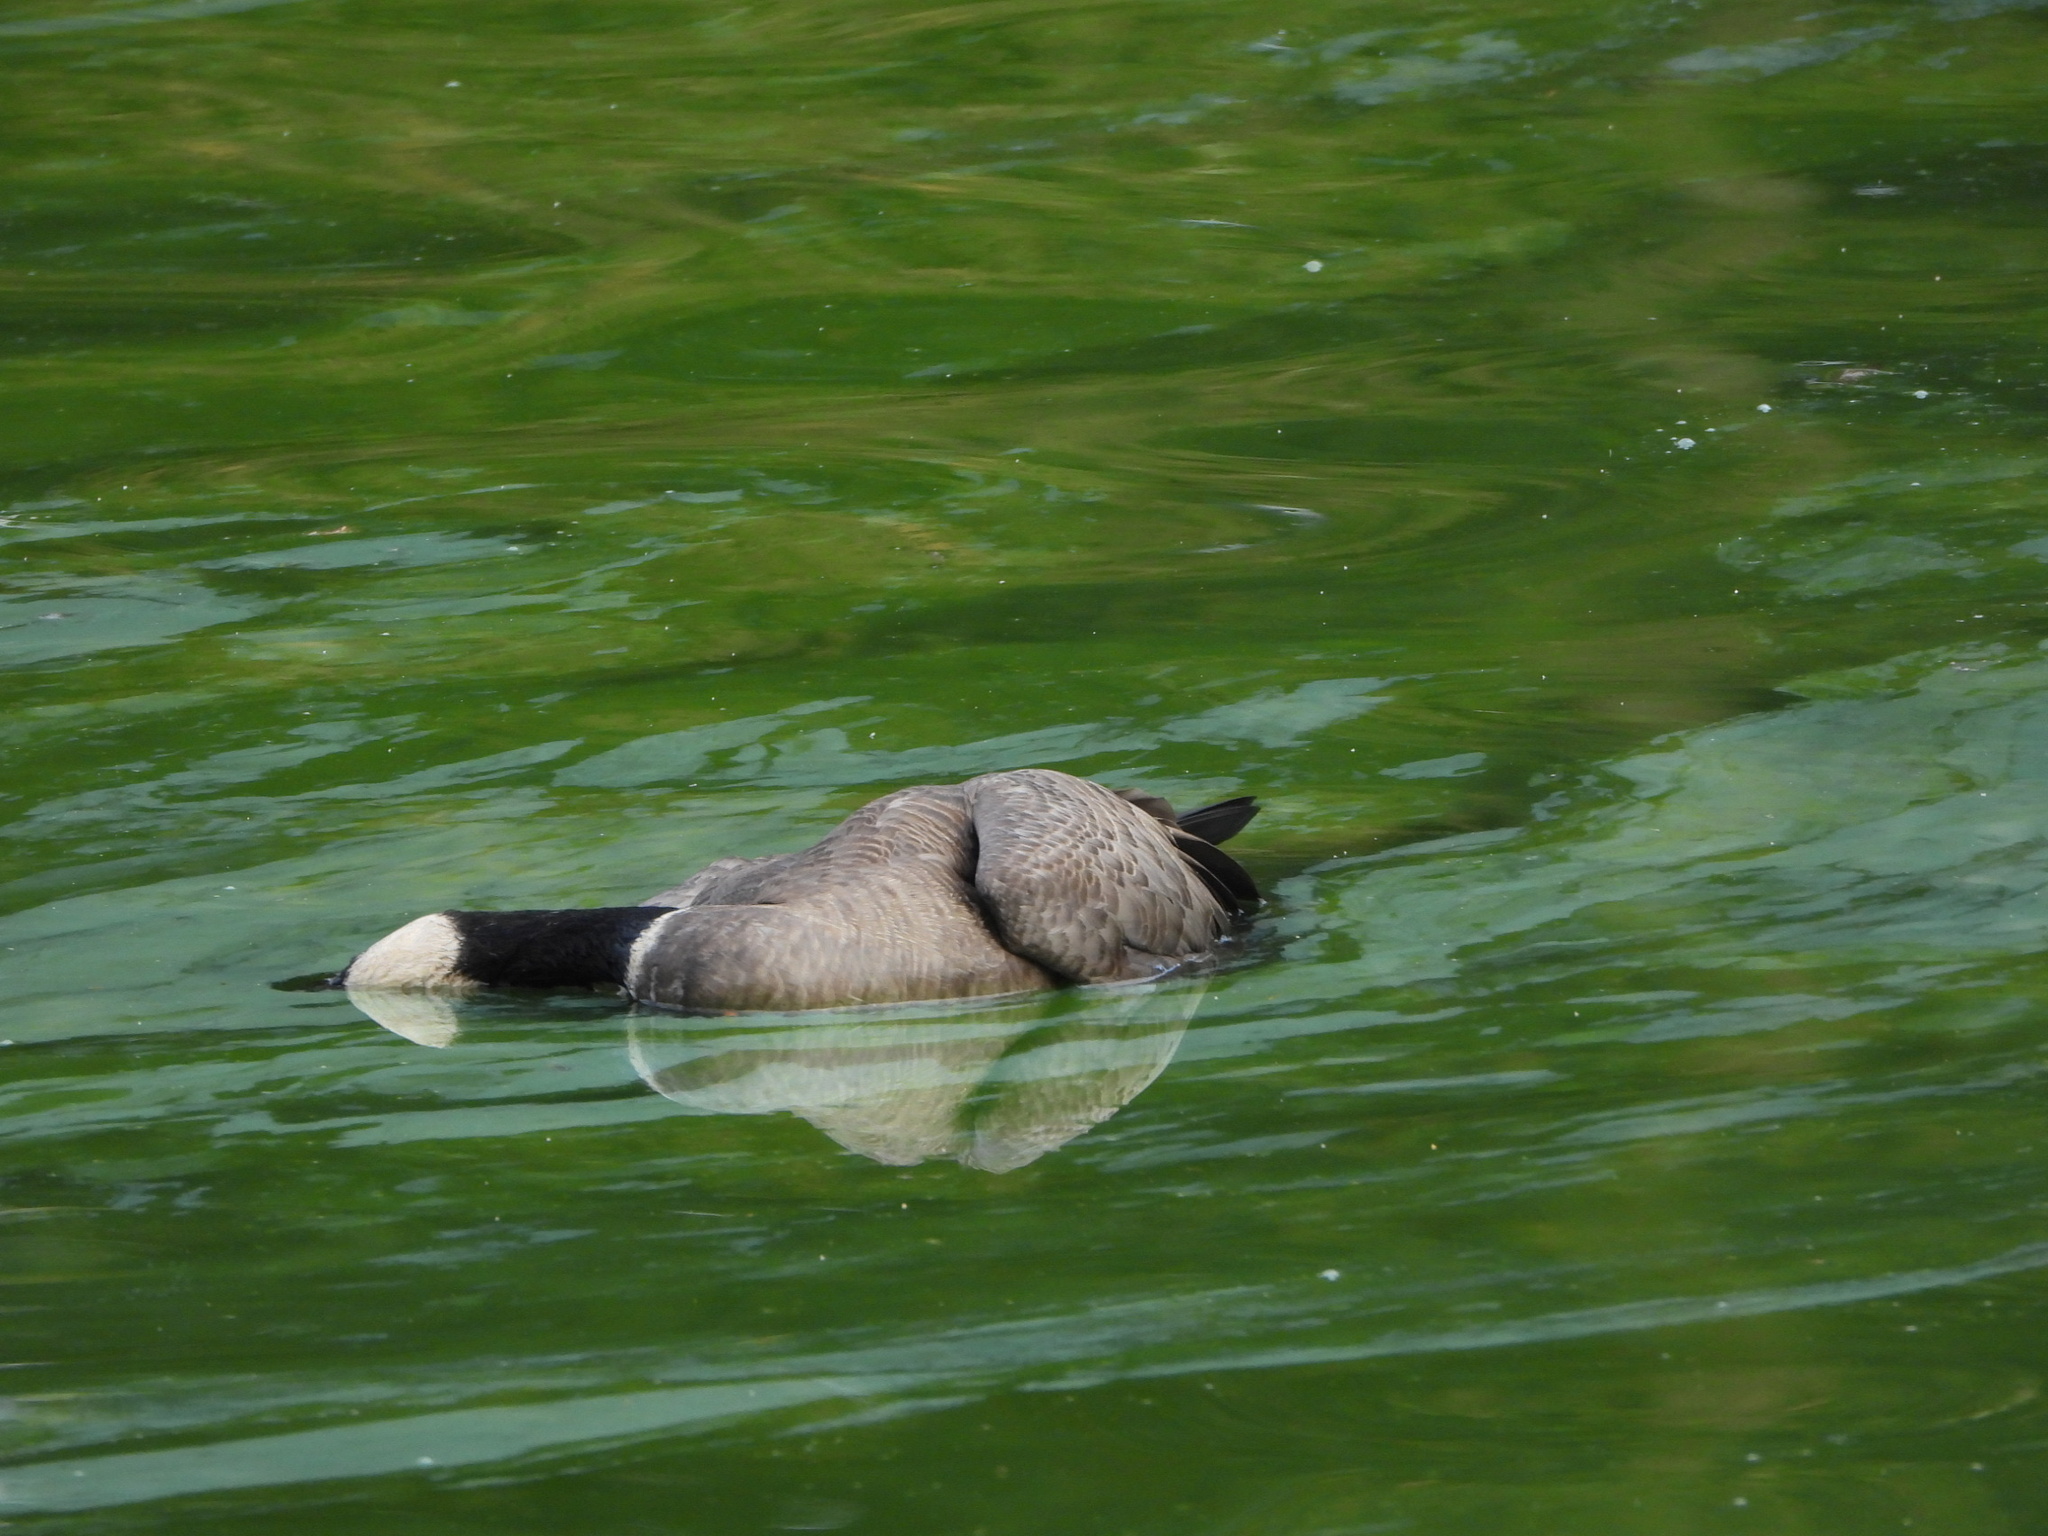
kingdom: Animalia
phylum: Chordata
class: Aves
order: Anseriformes
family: Anatidae
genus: Branta
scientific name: Branta hutchinsii
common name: Cackling goose
